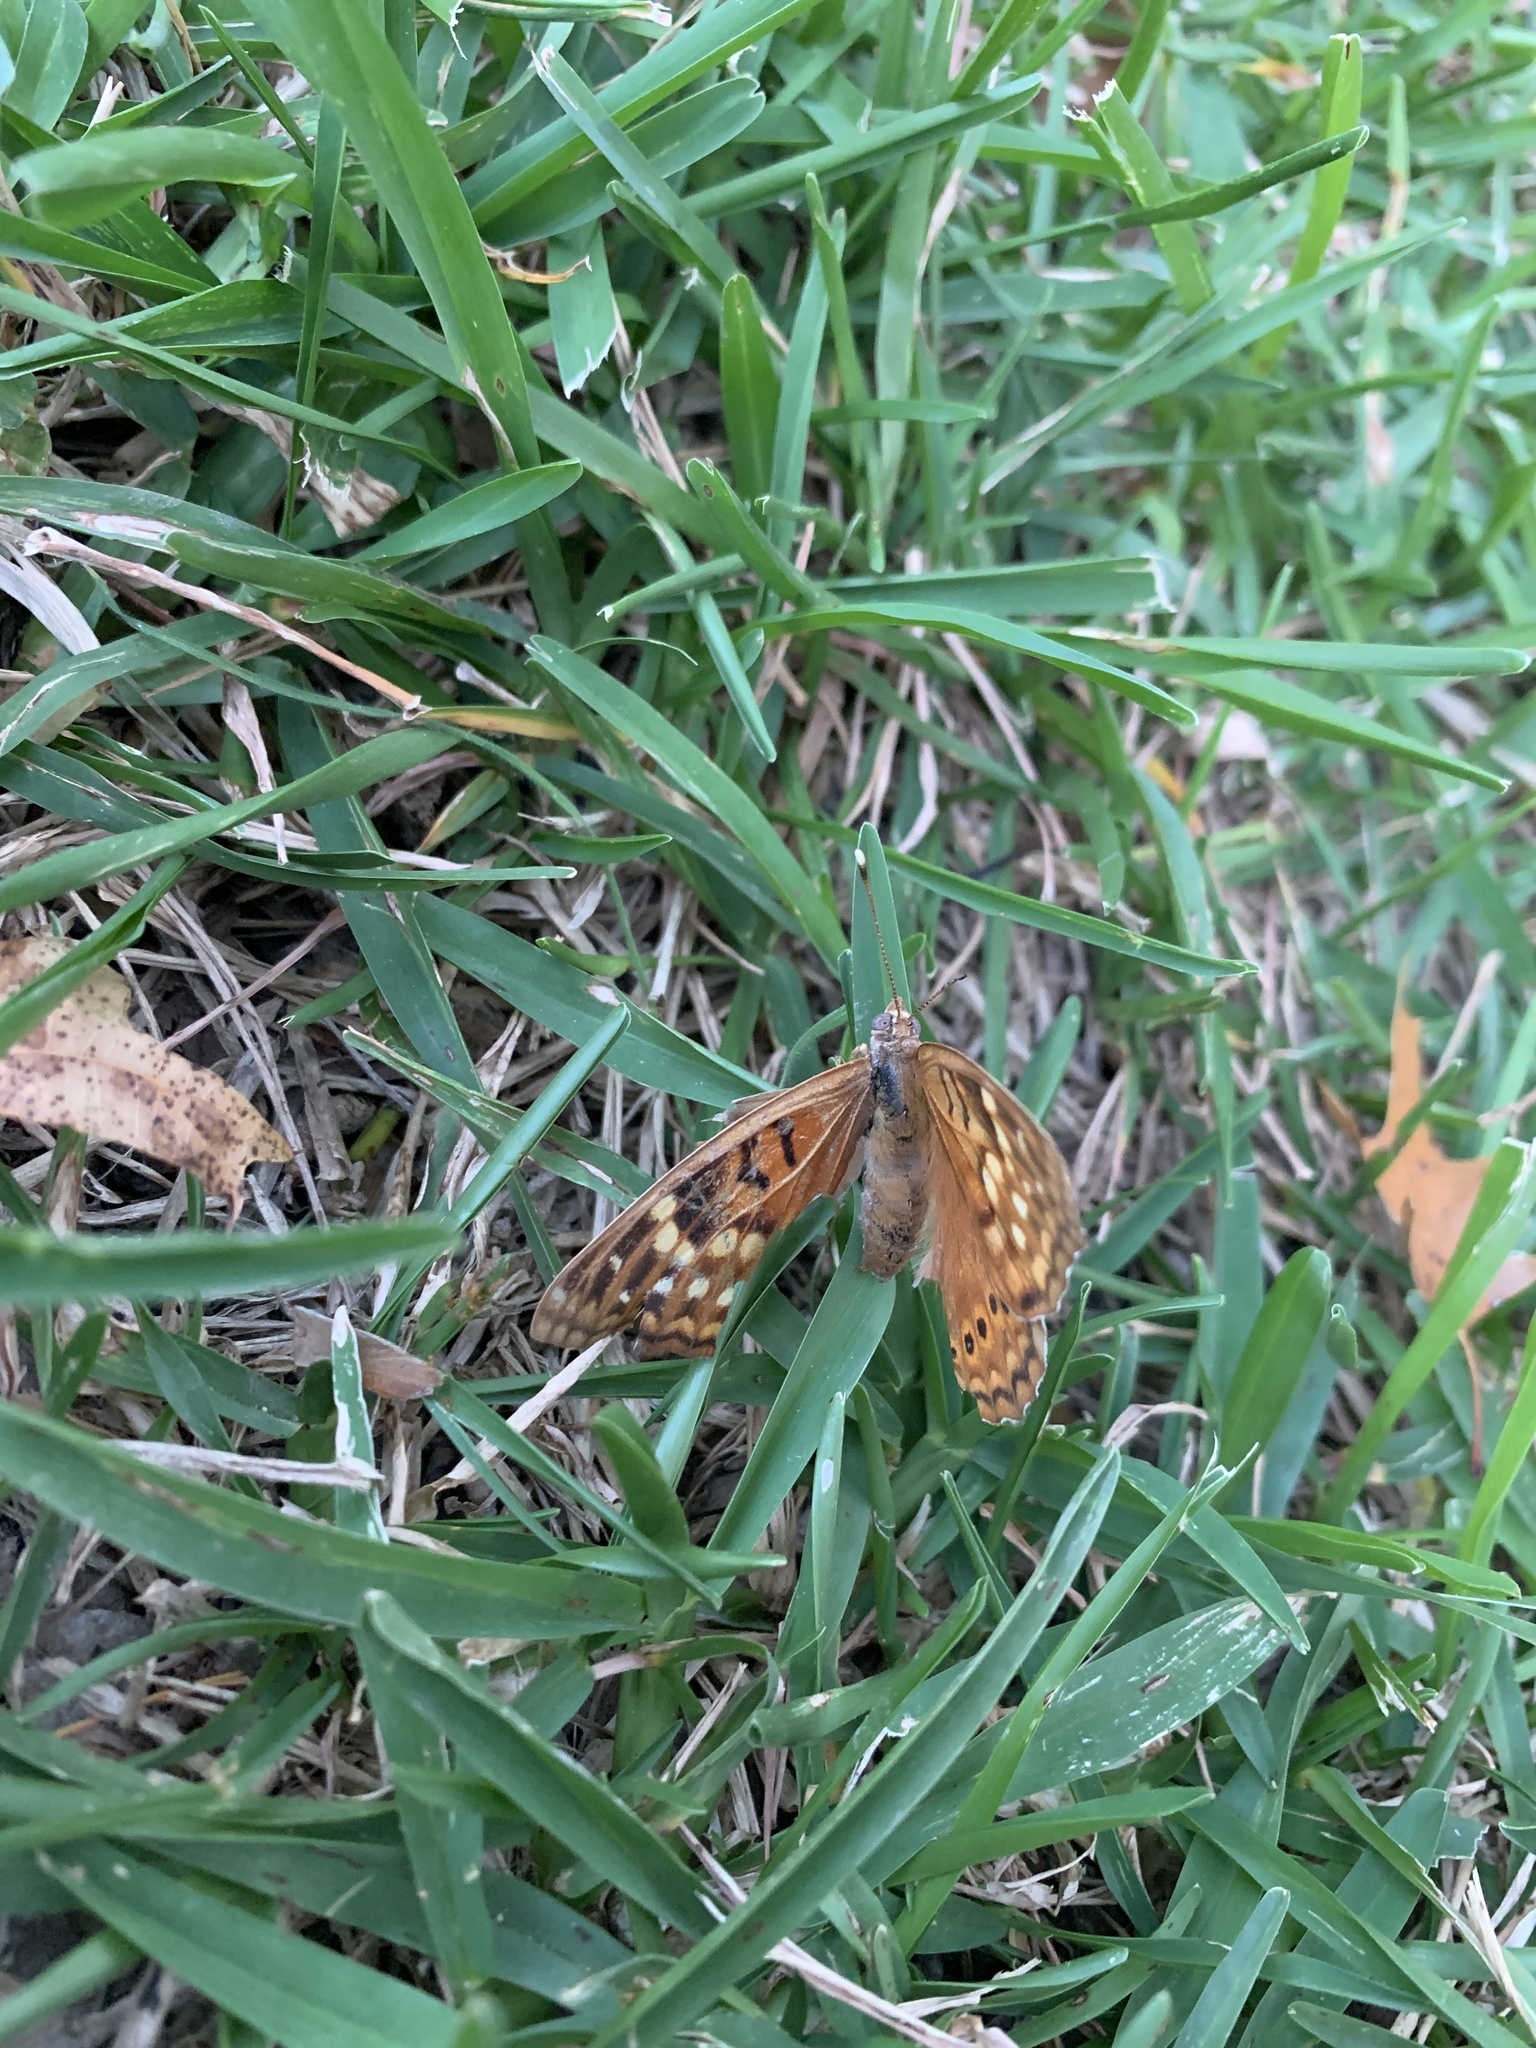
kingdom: Animalia
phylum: Arthropoda
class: Insecta
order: Lepidoptera
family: Nymphalidae
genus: Asterocampa
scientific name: Asterocampa clyton
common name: Tawny emperor
